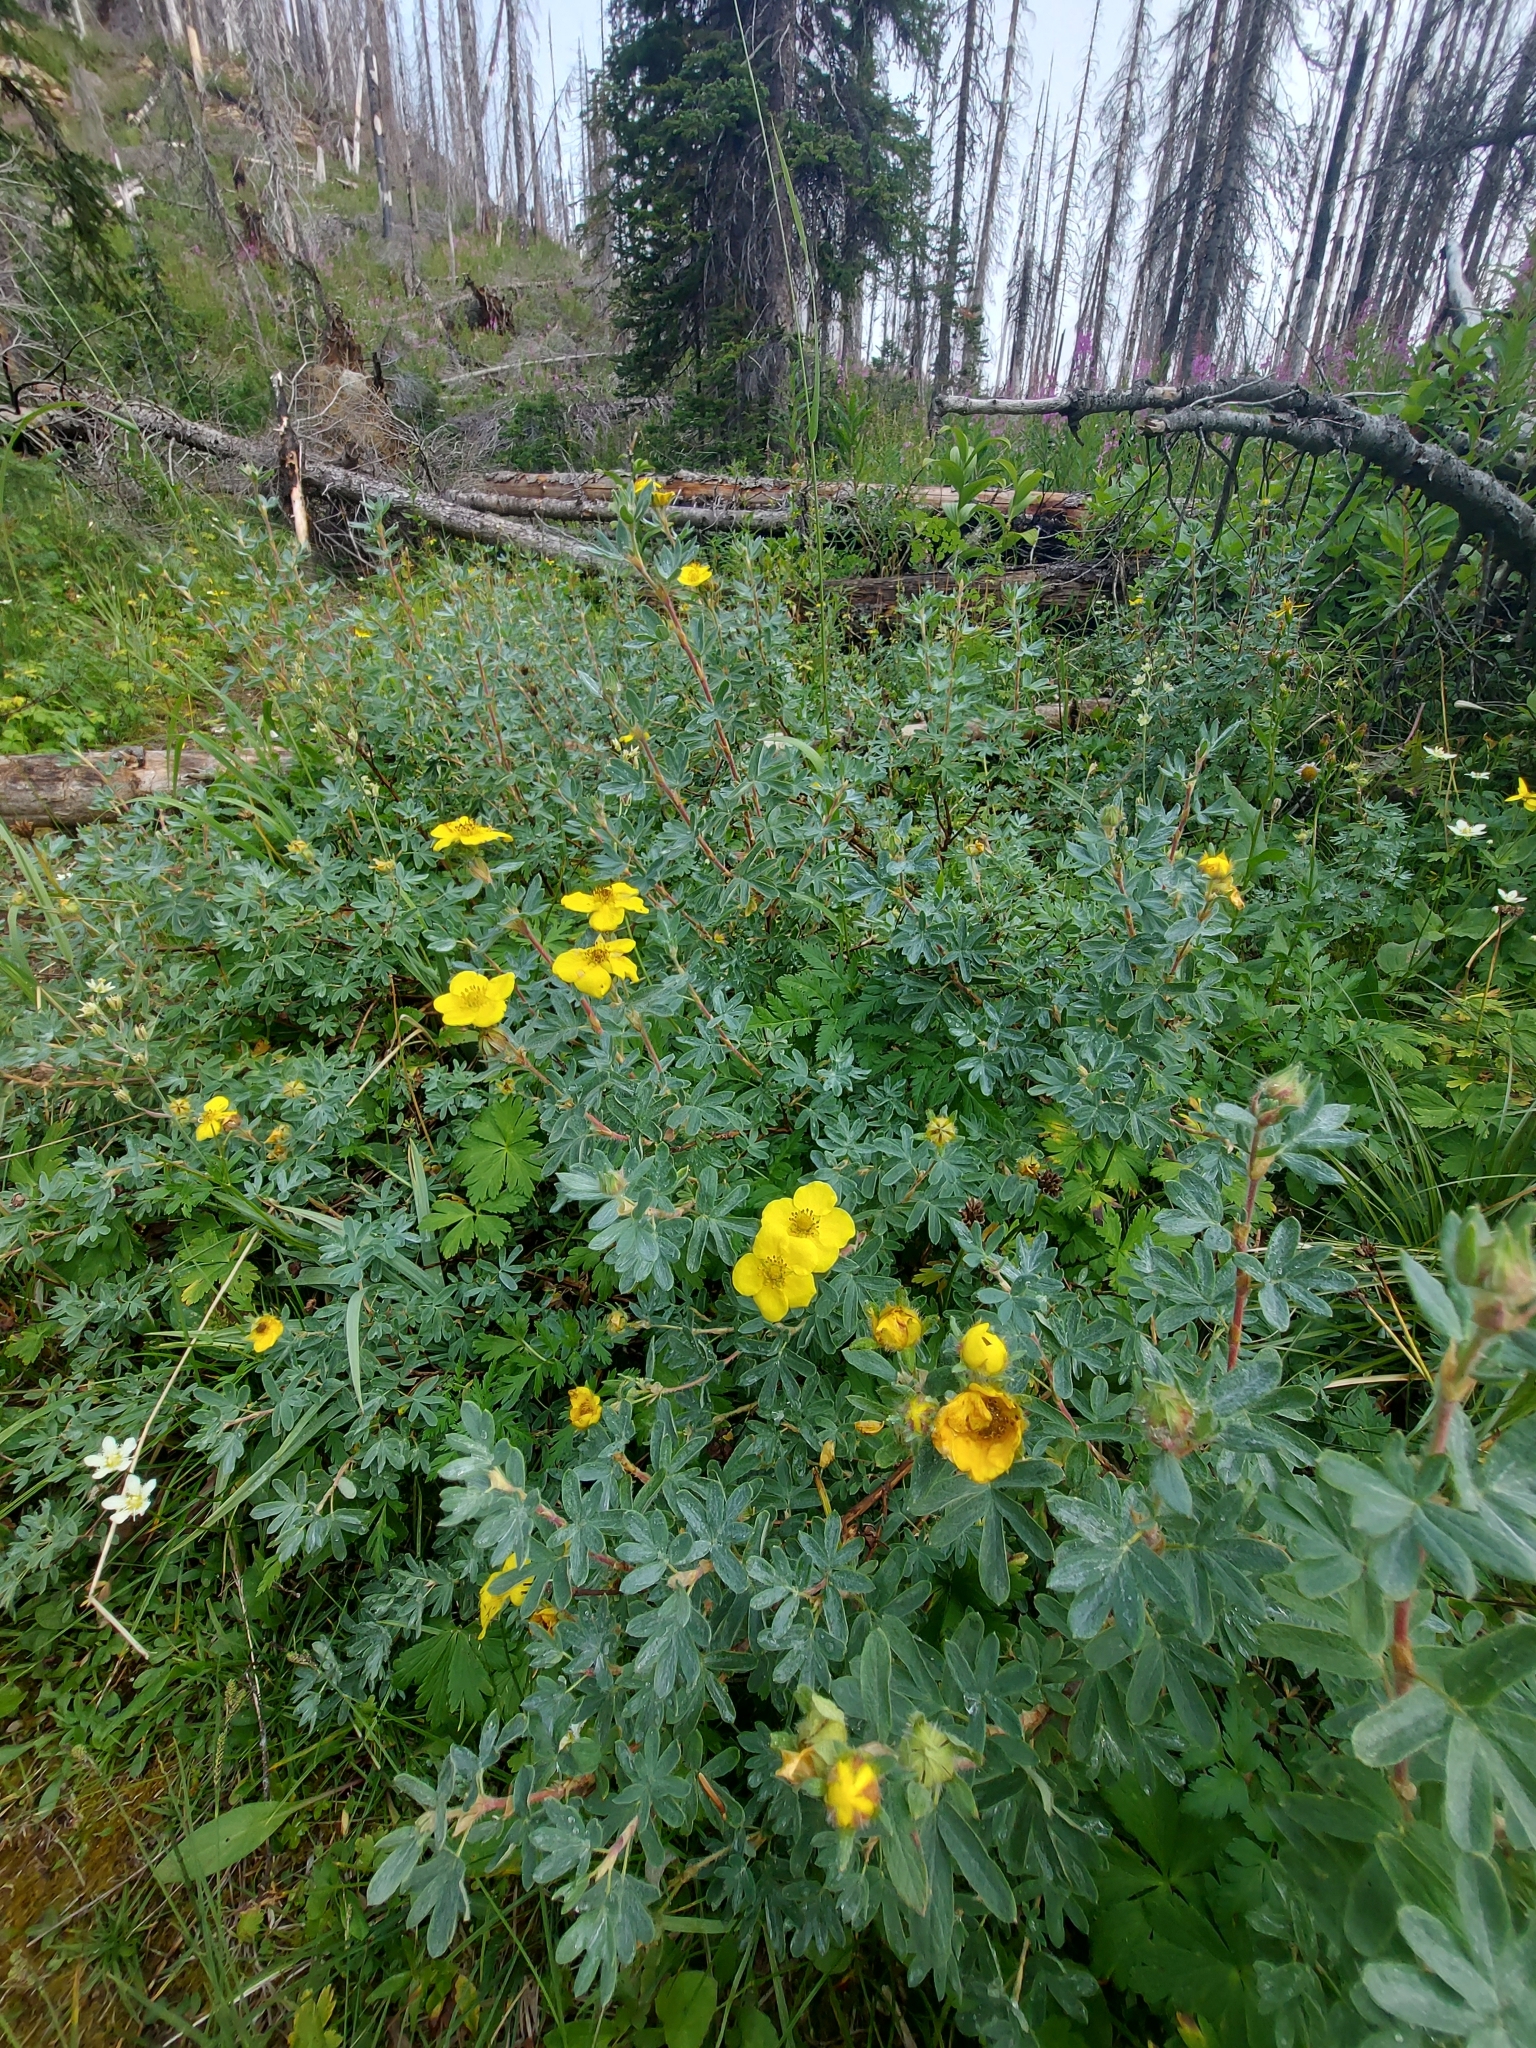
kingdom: Plantae
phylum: Tracheophyta
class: Magnoliopsida
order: Rosales
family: Rosaceae
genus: Dasiphora
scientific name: Dasiphora fruticosa
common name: Shrubby cinquefoil
